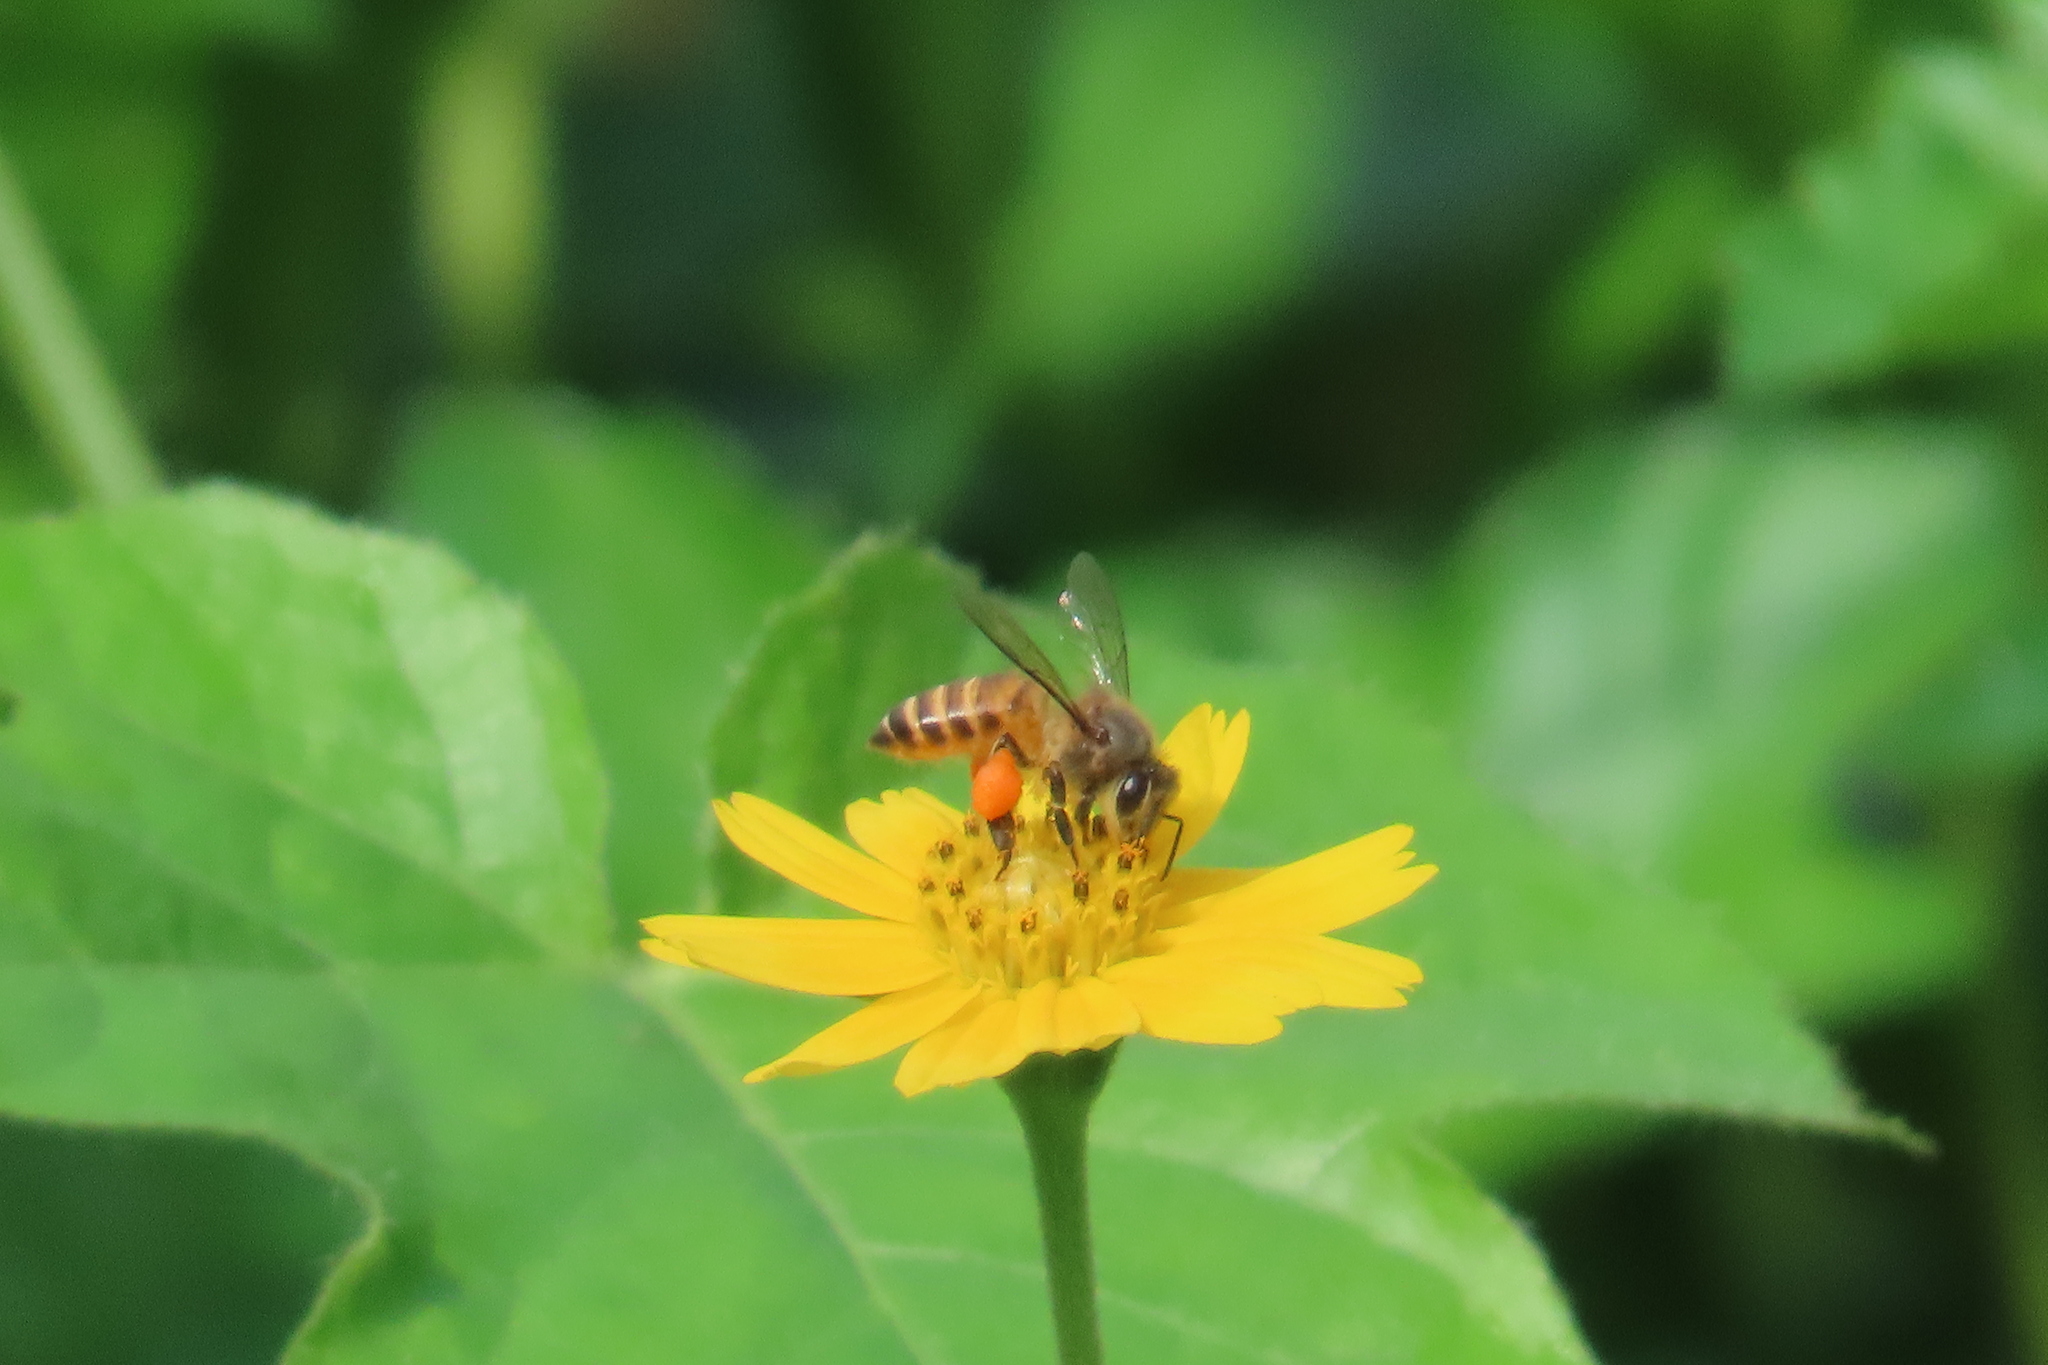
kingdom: Animalia
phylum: Arthropoda
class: Insecta
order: Hymenoptera
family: Apidae
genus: Apis
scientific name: Apis cerana
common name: Honey bee
